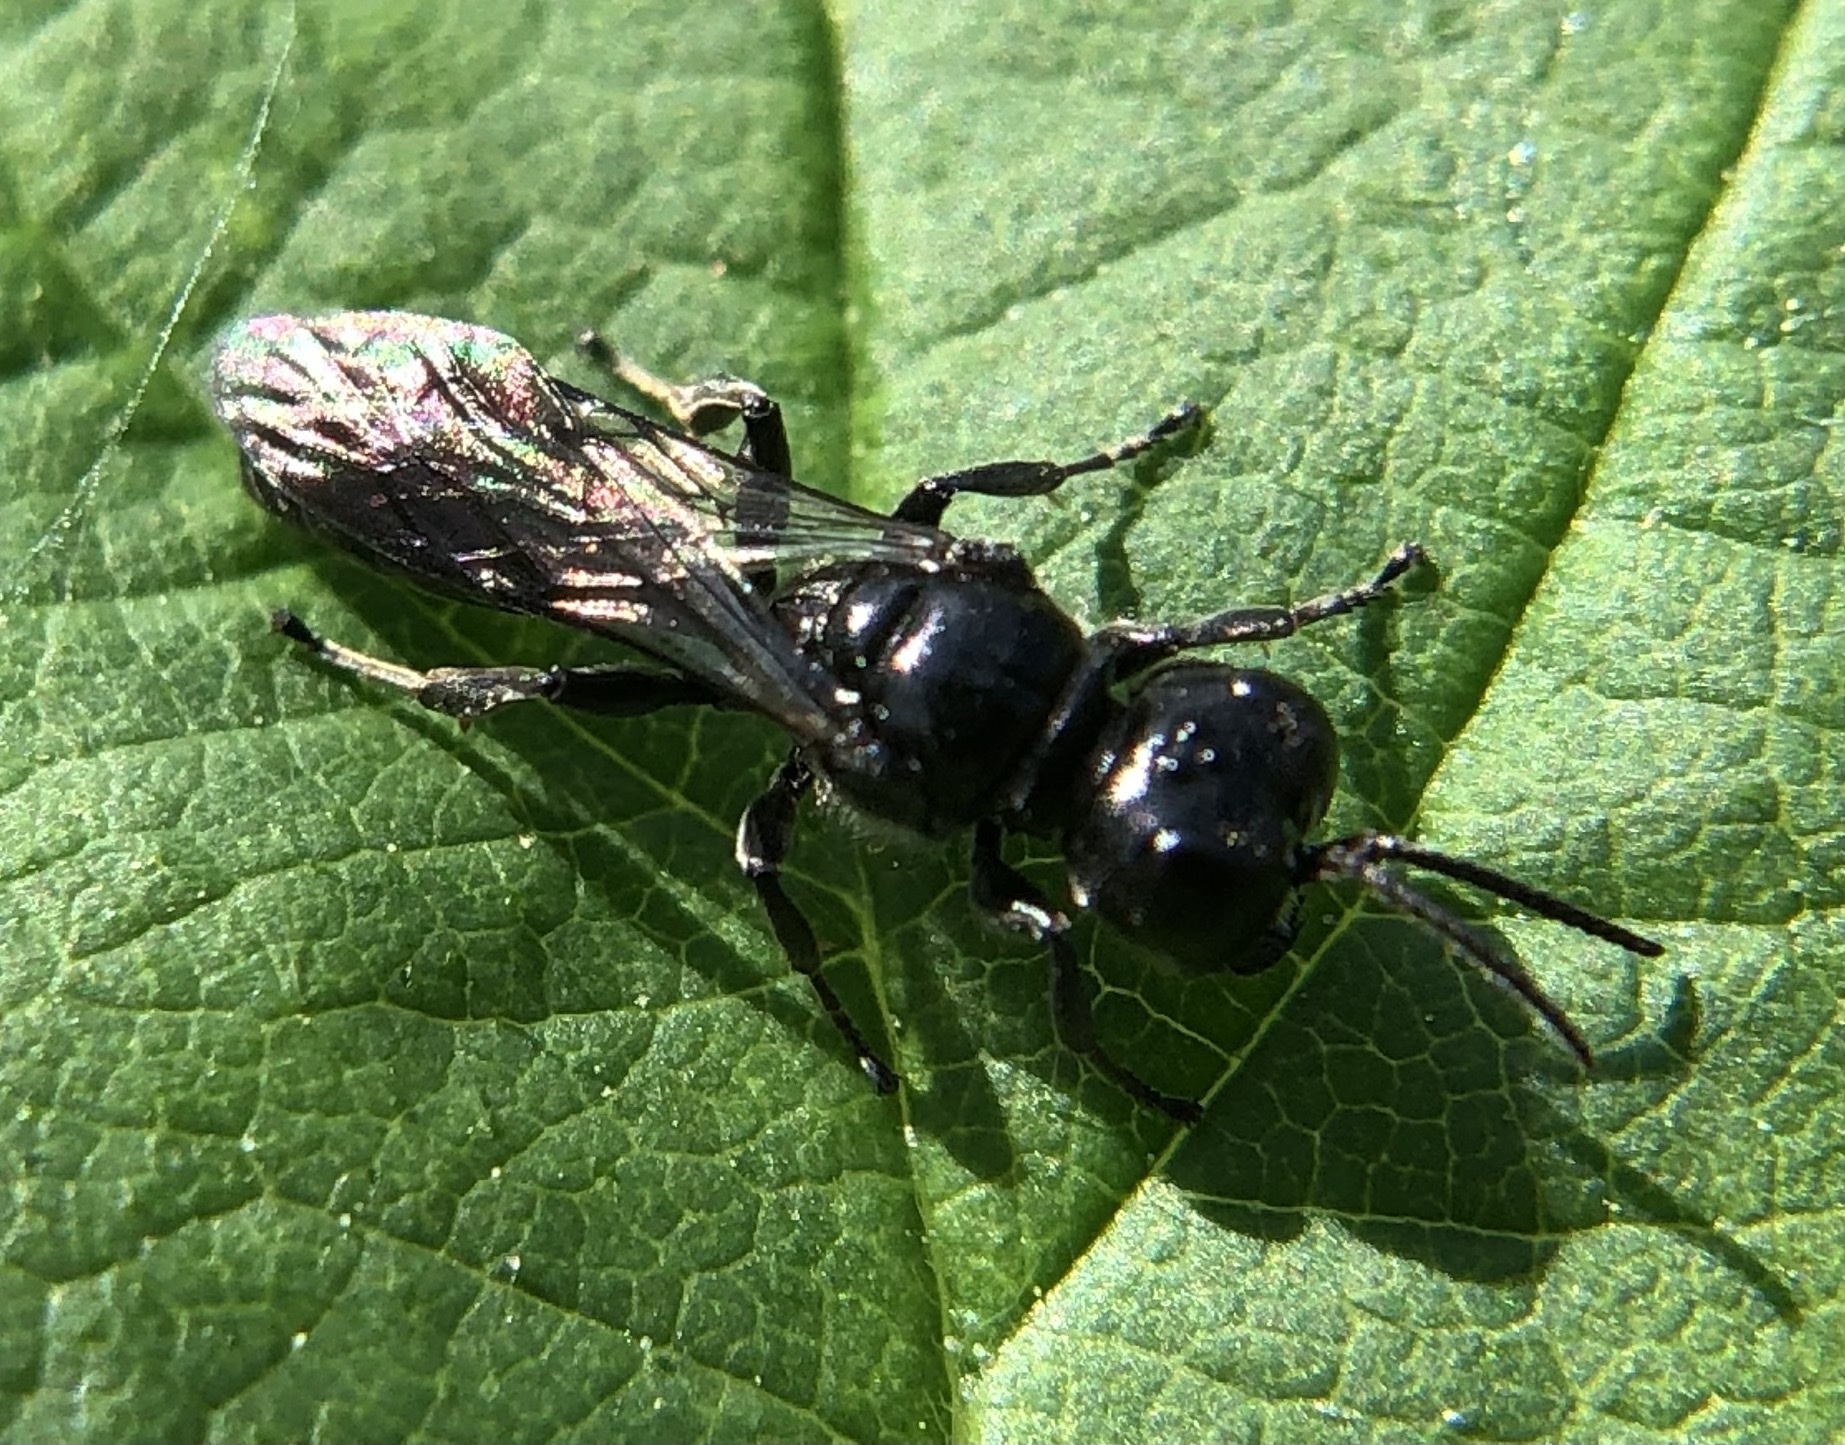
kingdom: Animalia
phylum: Arthropoda
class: Insecta
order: Hymenoptera
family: Crabronidae
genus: Crossocerus
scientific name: Crossocerus megacephalus
